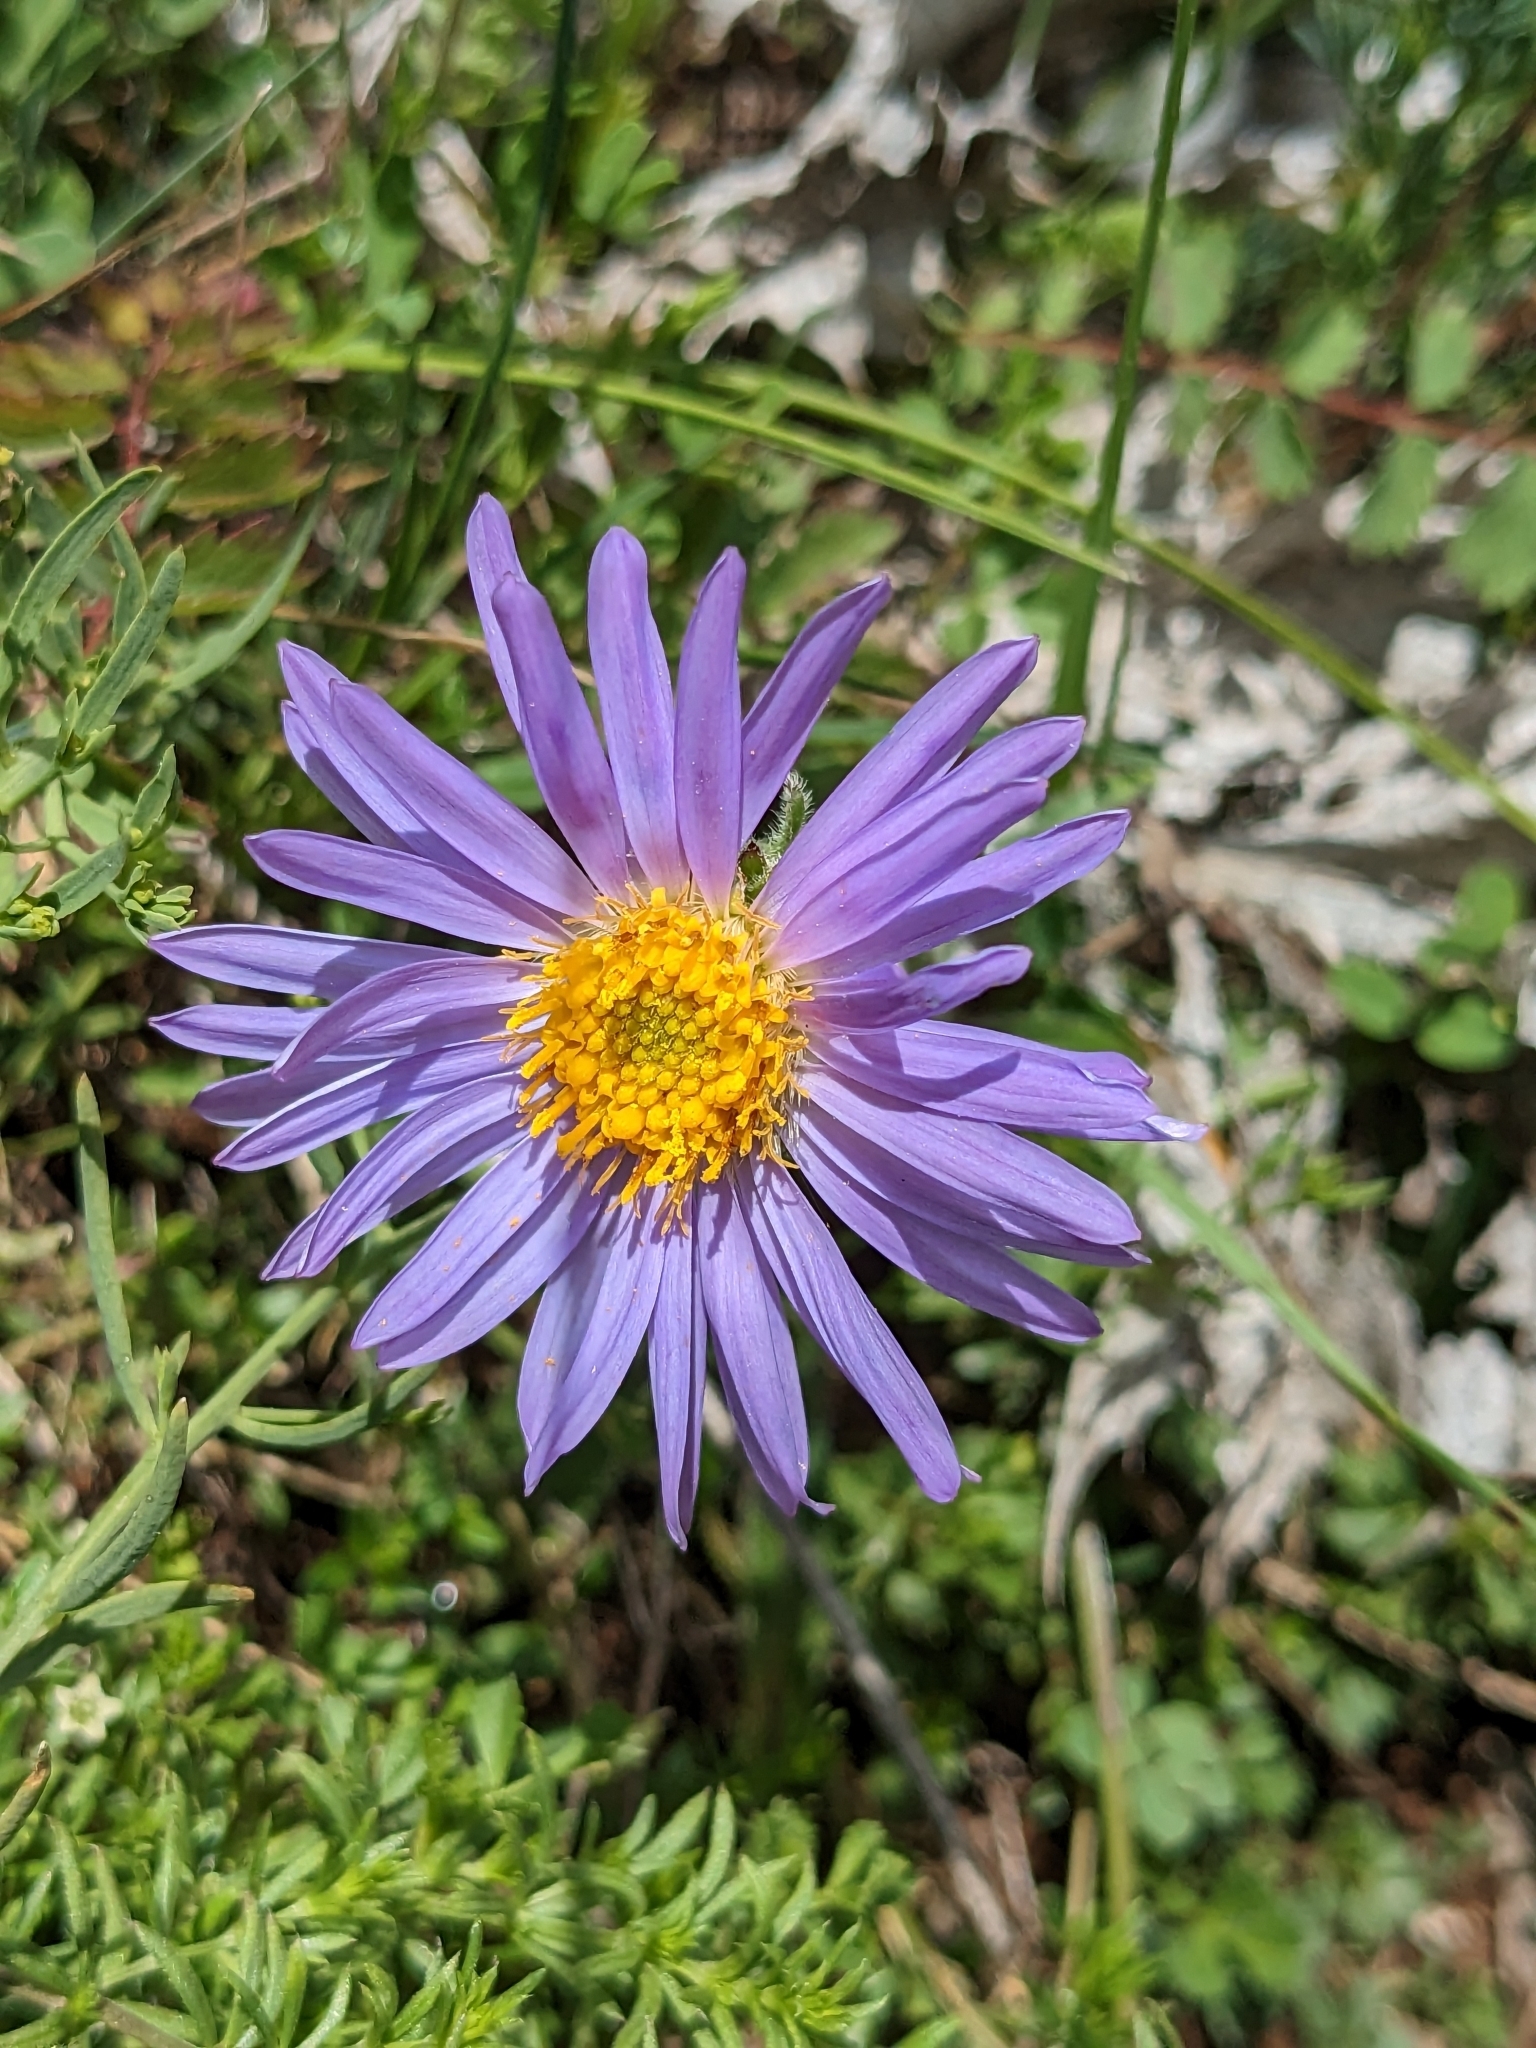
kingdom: Plantae
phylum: Tracheophyta
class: Magnoliopsida
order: Asterales
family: Asteraceae
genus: Aster
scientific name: Aster alpinus
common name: Alpine aster
